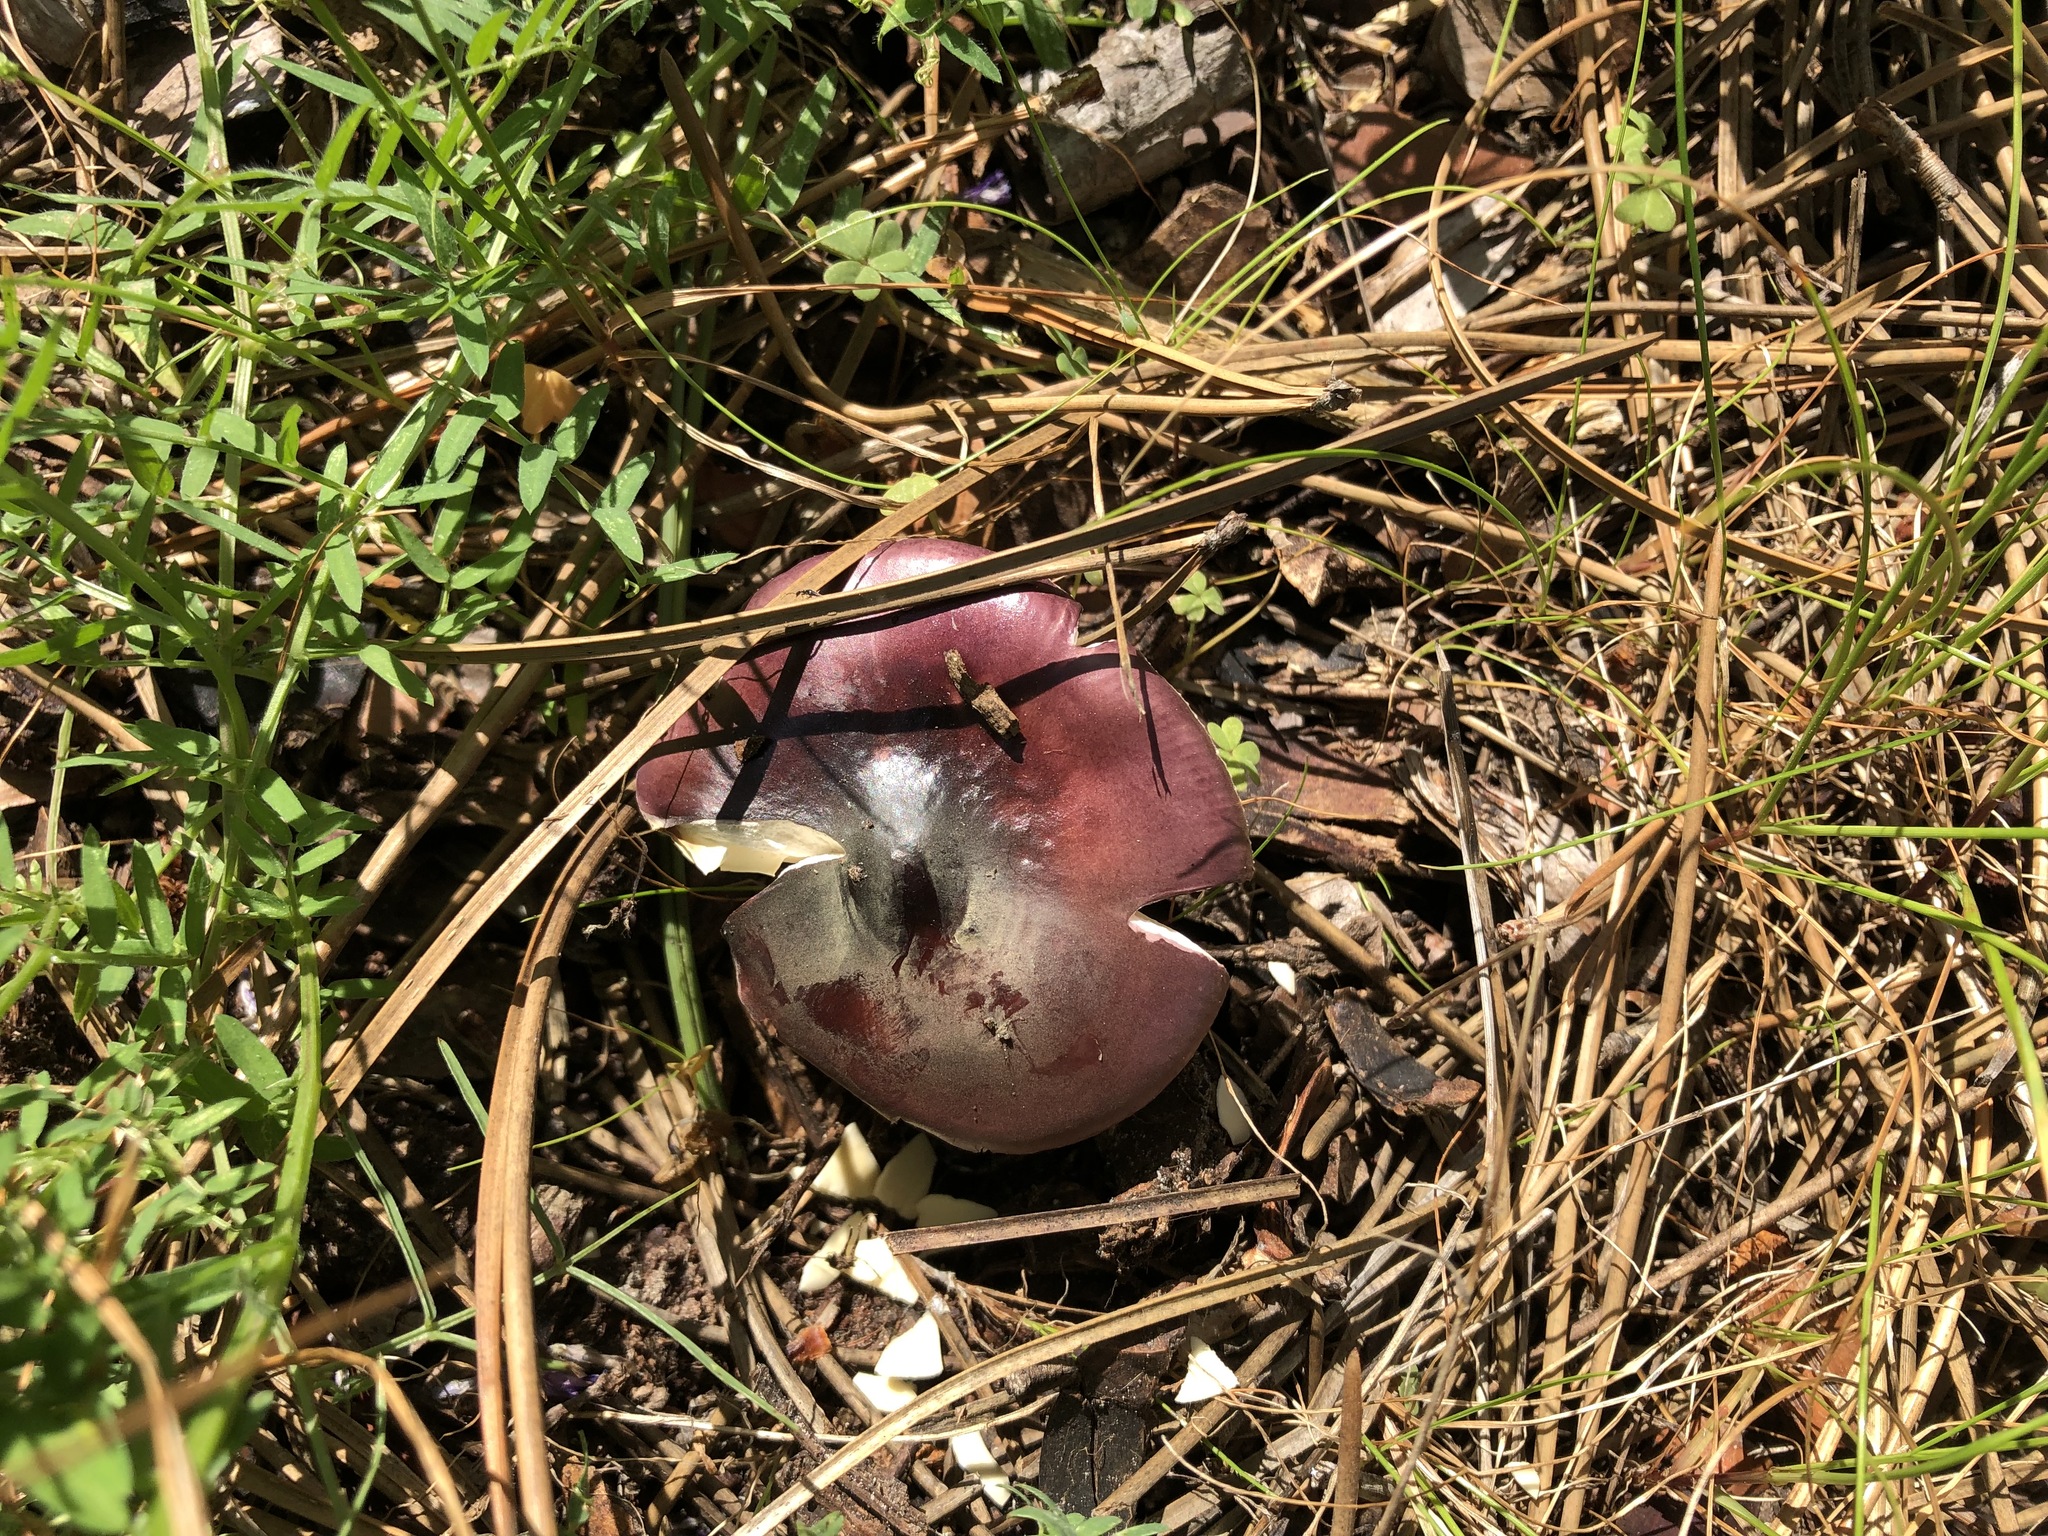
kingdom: Fungi
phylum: Basidiomycota
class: Agaricomycetes
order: Russulales
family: Russulaceae
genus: Russula
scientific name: Russula capensis
